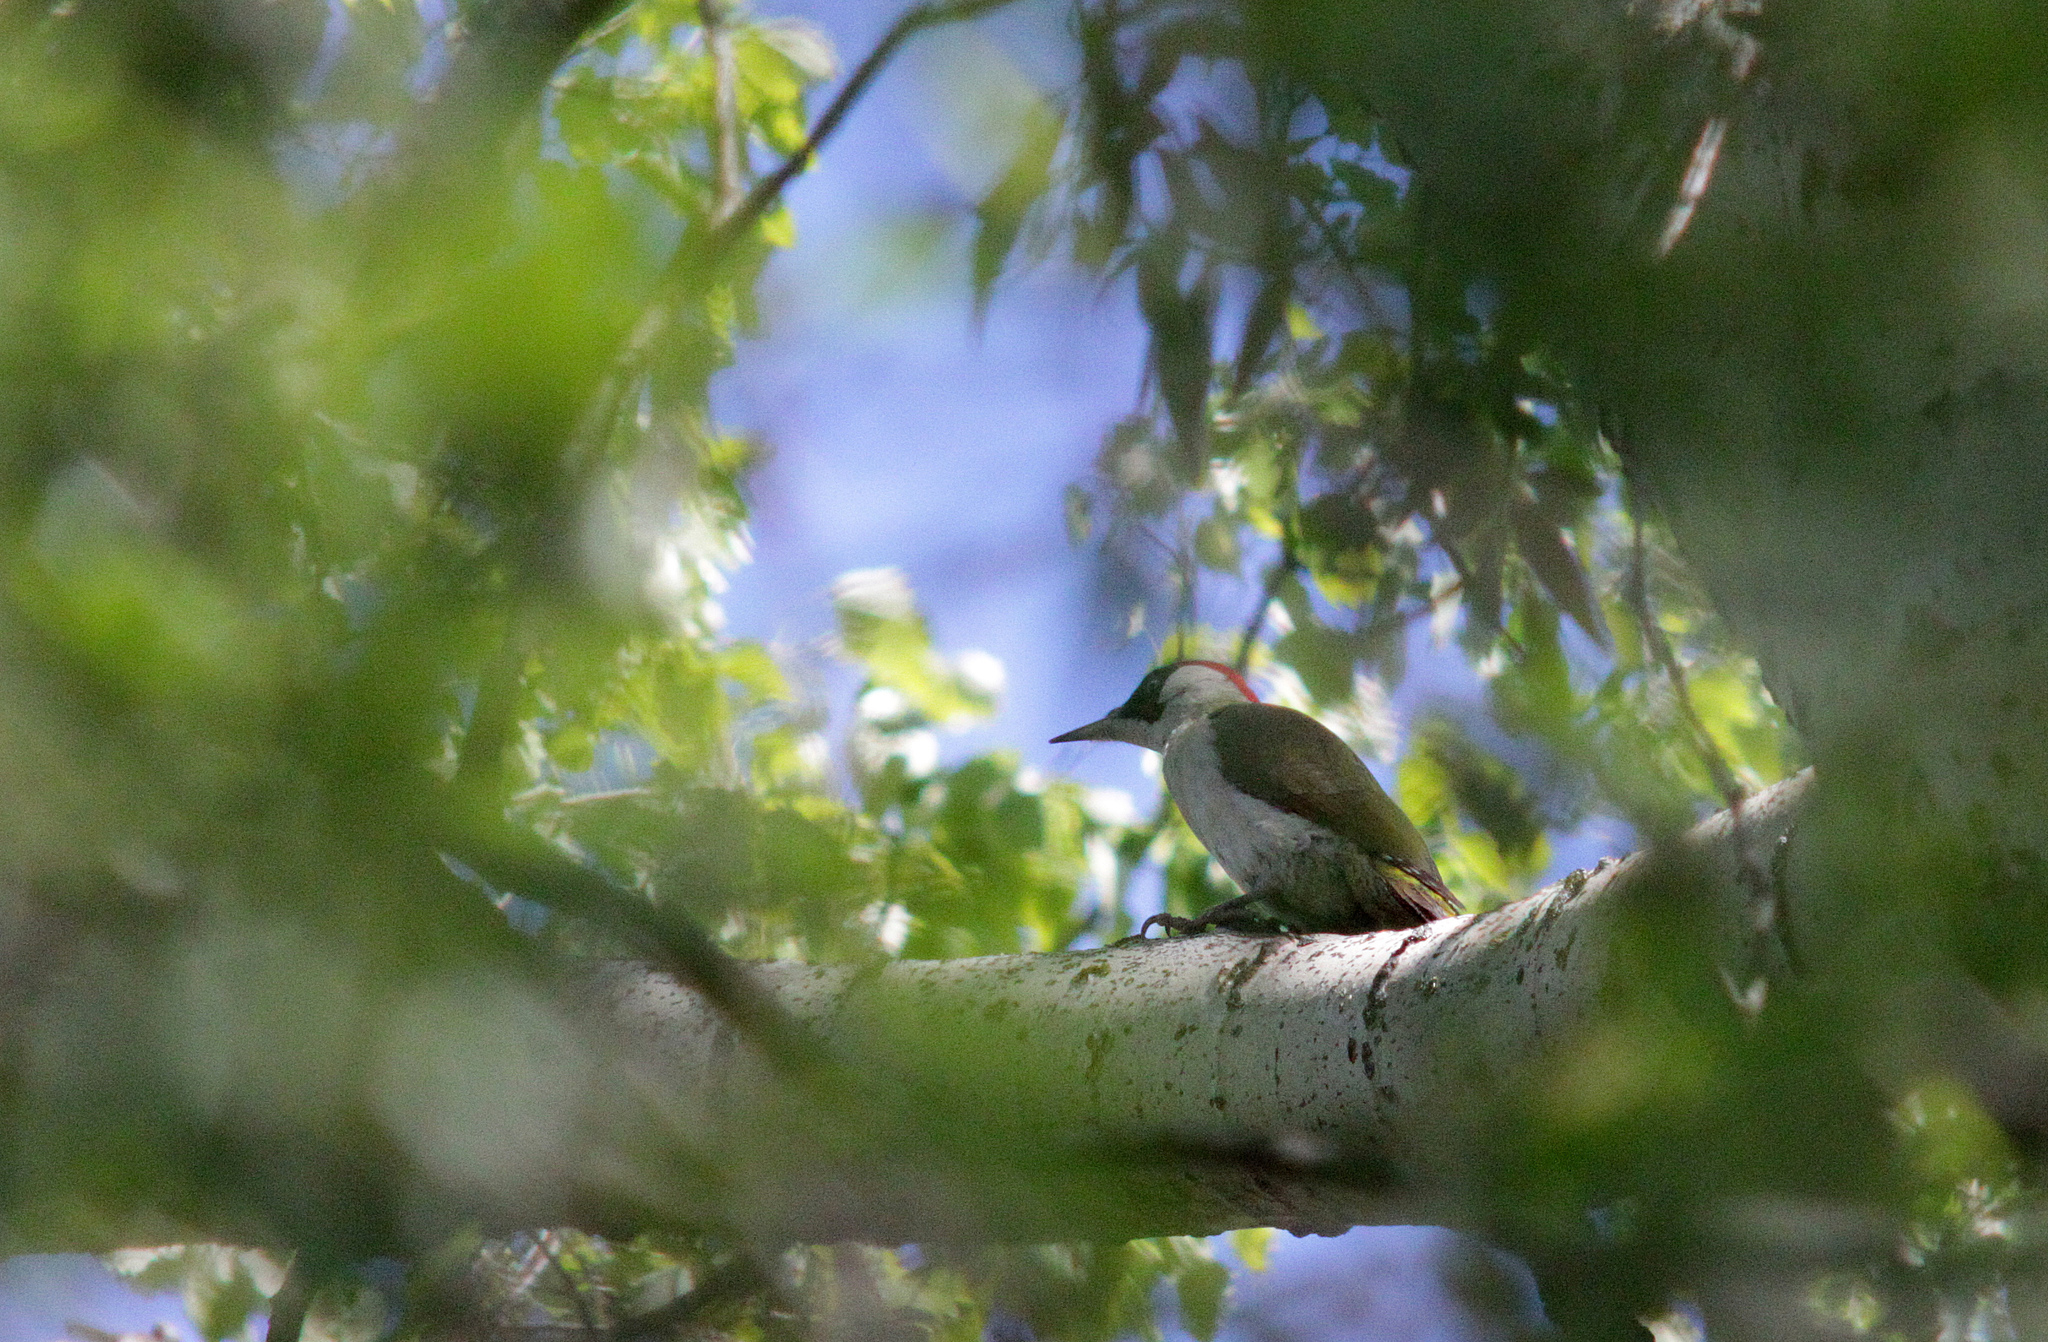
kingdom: Animalia
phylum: Chordata
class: Aves
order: Piciformes
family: Picidae
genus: Picus
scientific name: Picus viridis
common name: European green woodpecker
